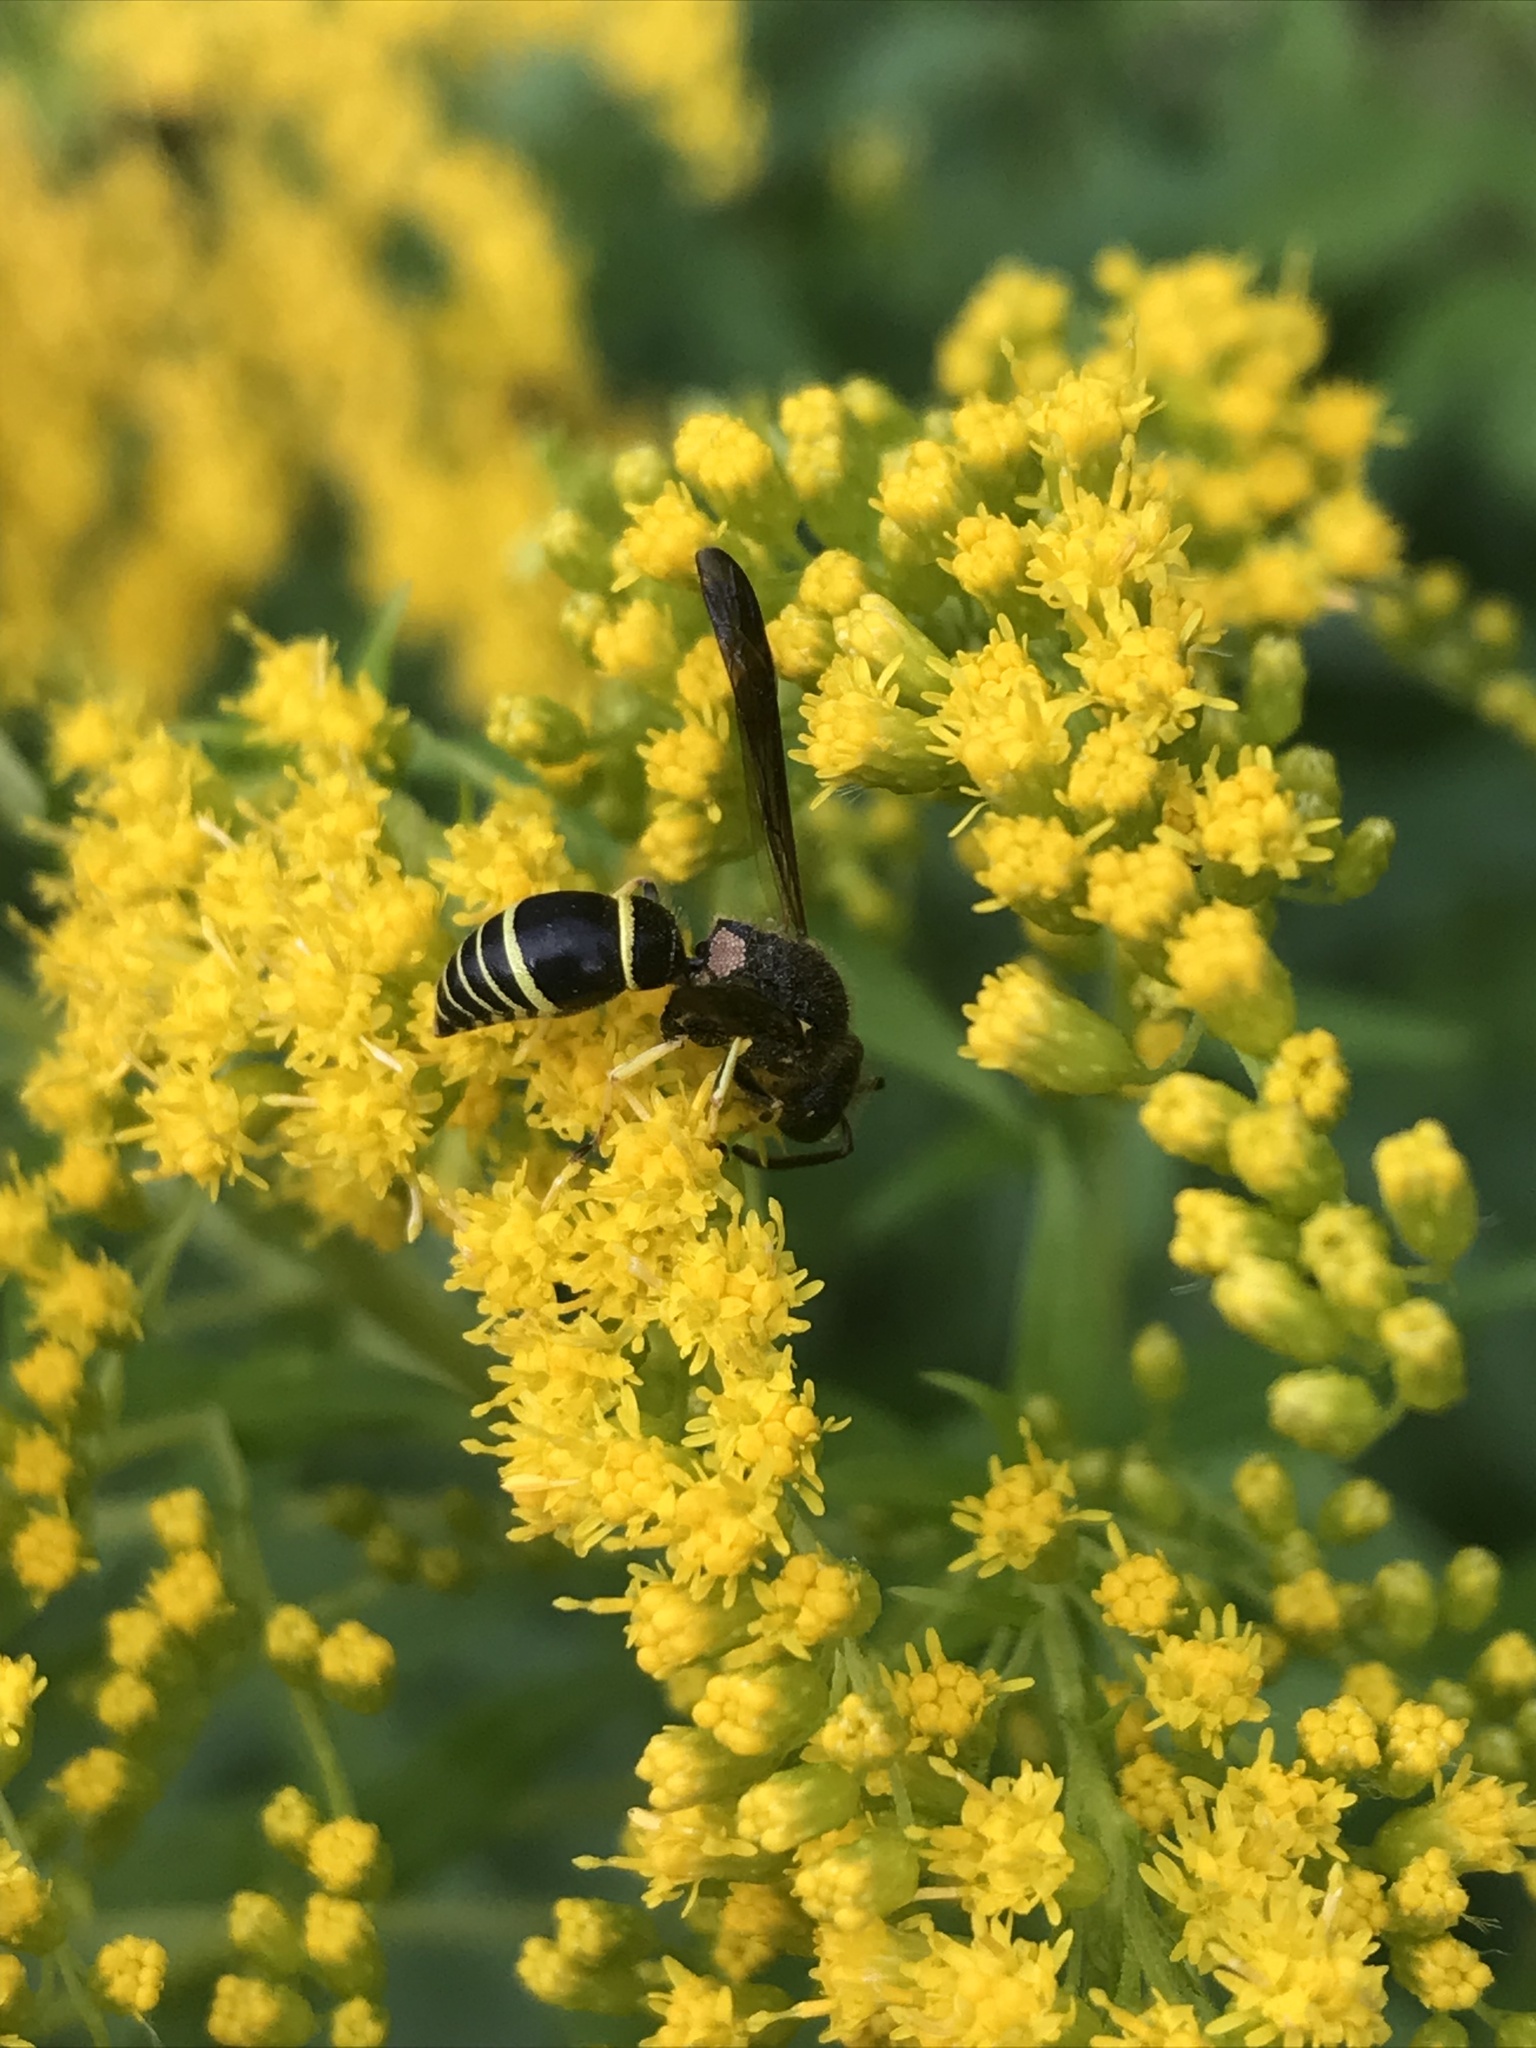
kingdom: Animalia
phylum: Arthropoda
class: Insecta
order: Hymenoptera
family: Vespidae
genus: Ancistrocerus
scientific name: Ancistrocerus
